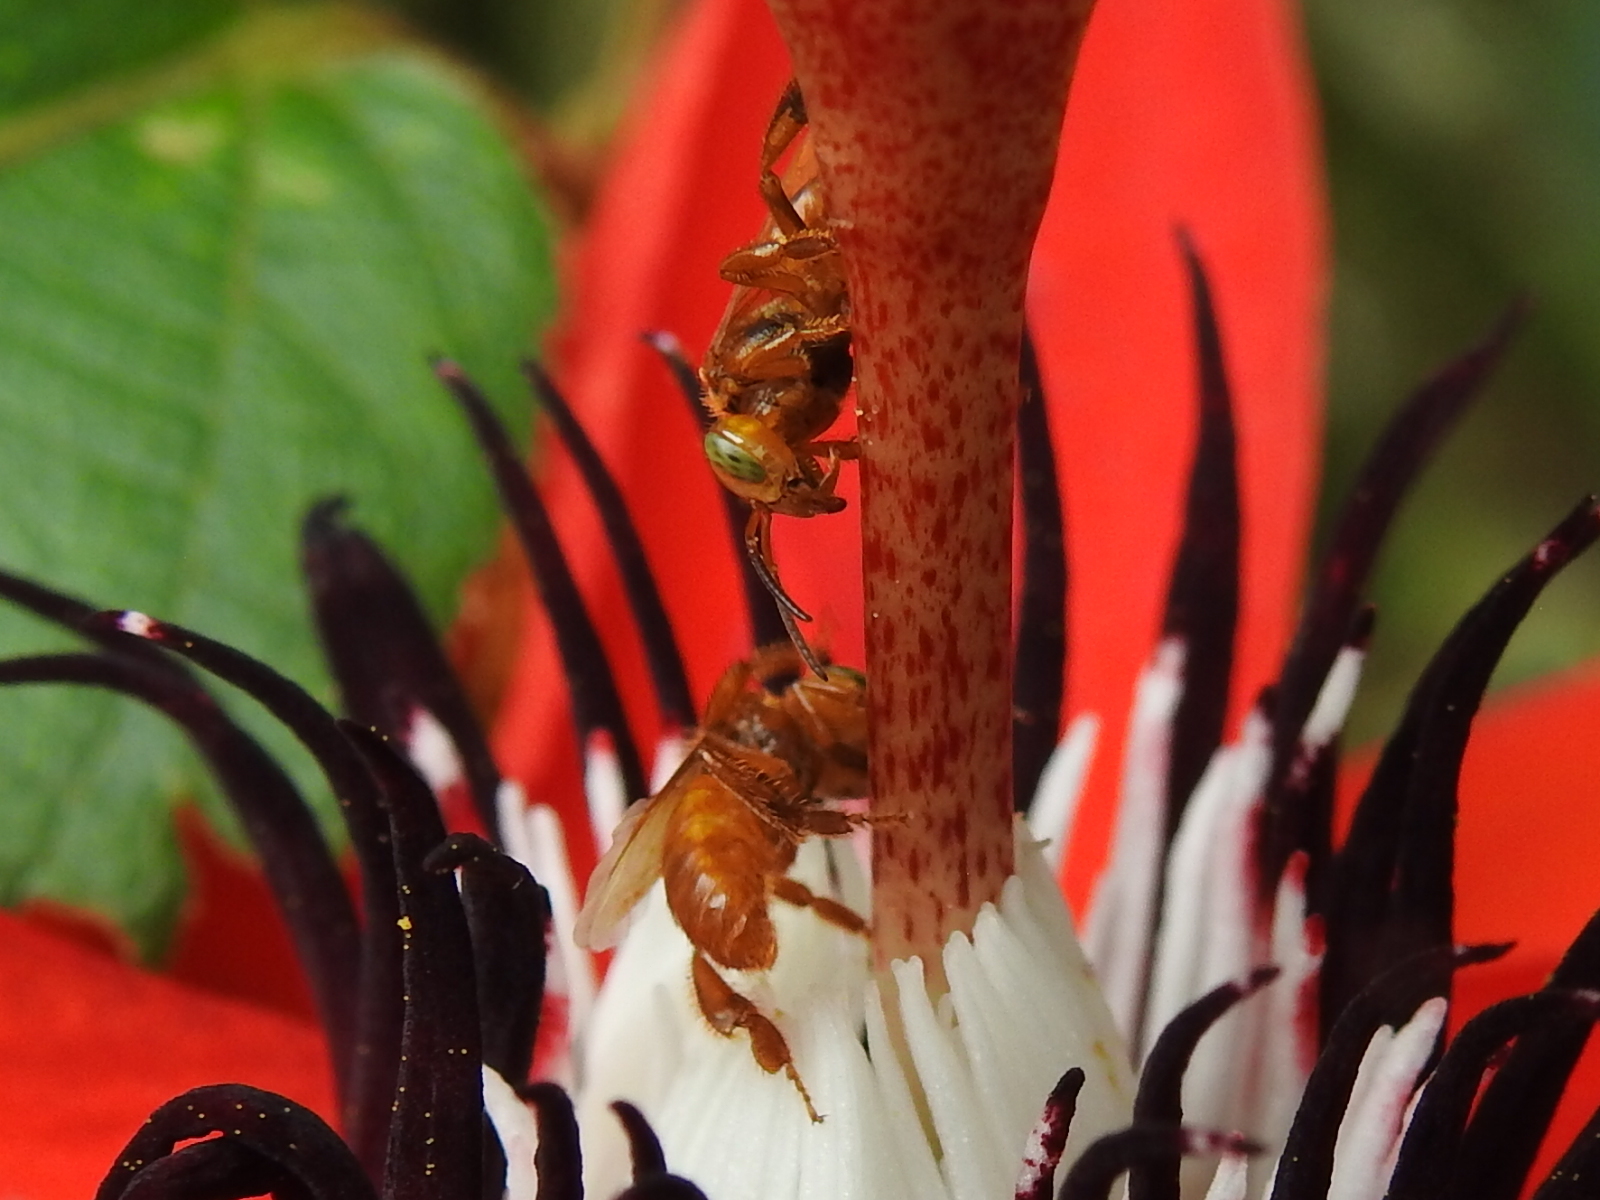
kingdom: Animalia
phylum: Arthropoda
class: Insecta
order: Hymenoptera
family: Apidae
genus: Oxytrigona
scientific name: Oxytrigona mellicolor
